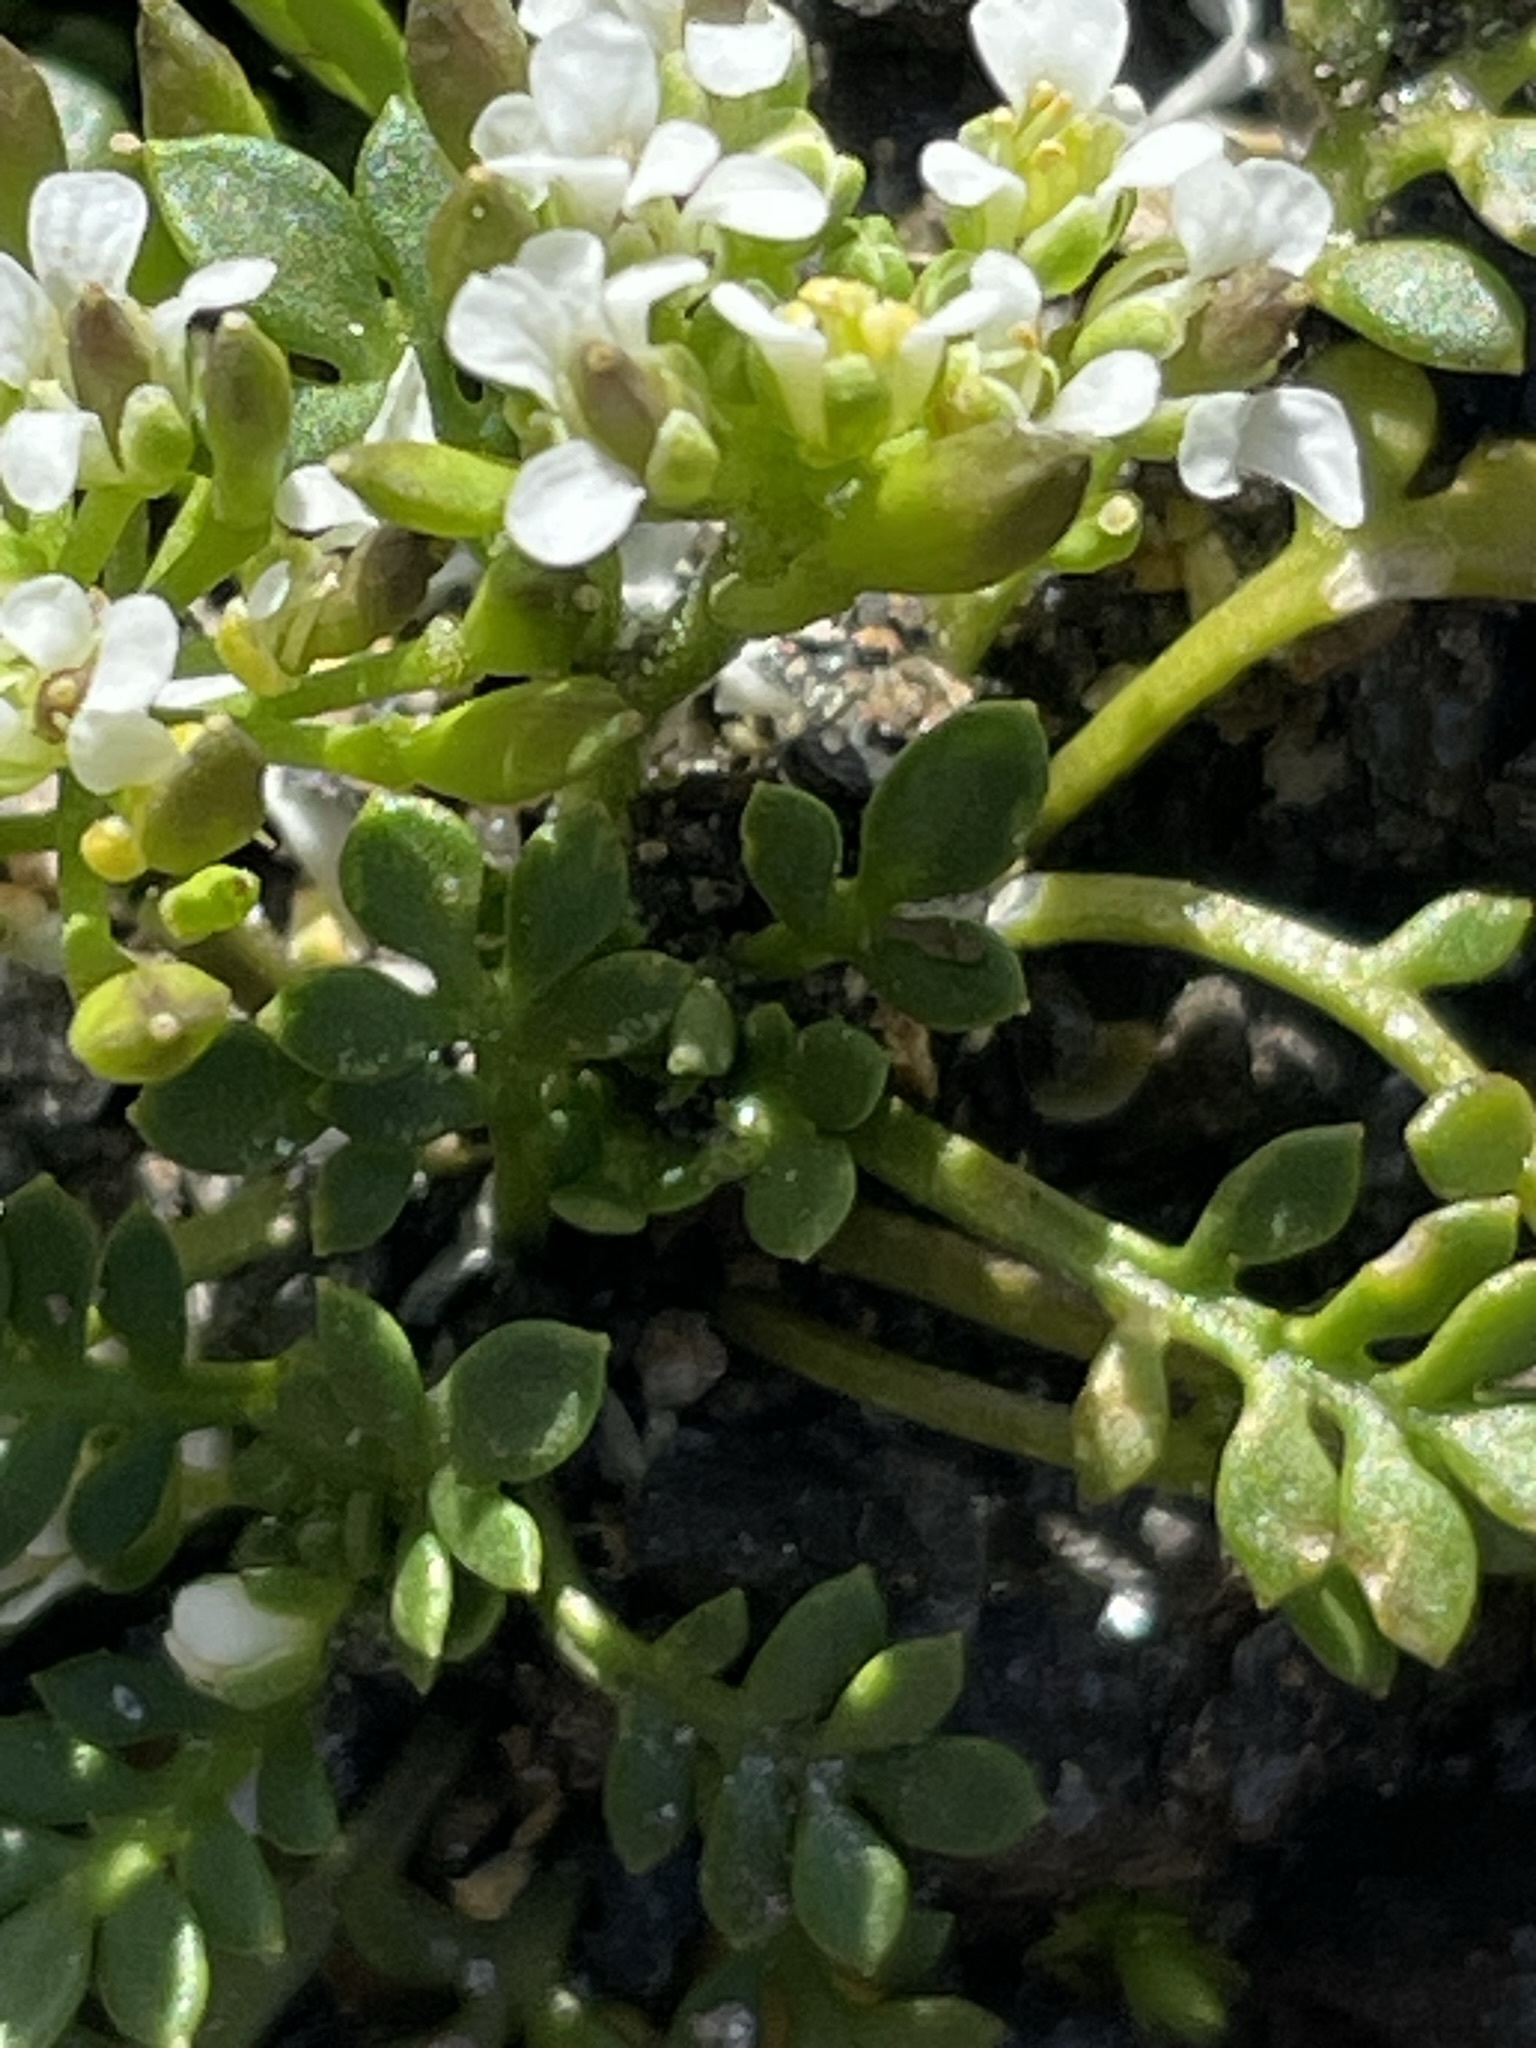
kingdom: Plantae
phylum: Tracheophyta
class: Magnoliopsida
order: Brassicales
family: Brassicaceae
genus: Hornungia
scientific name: Hornungia alpina
